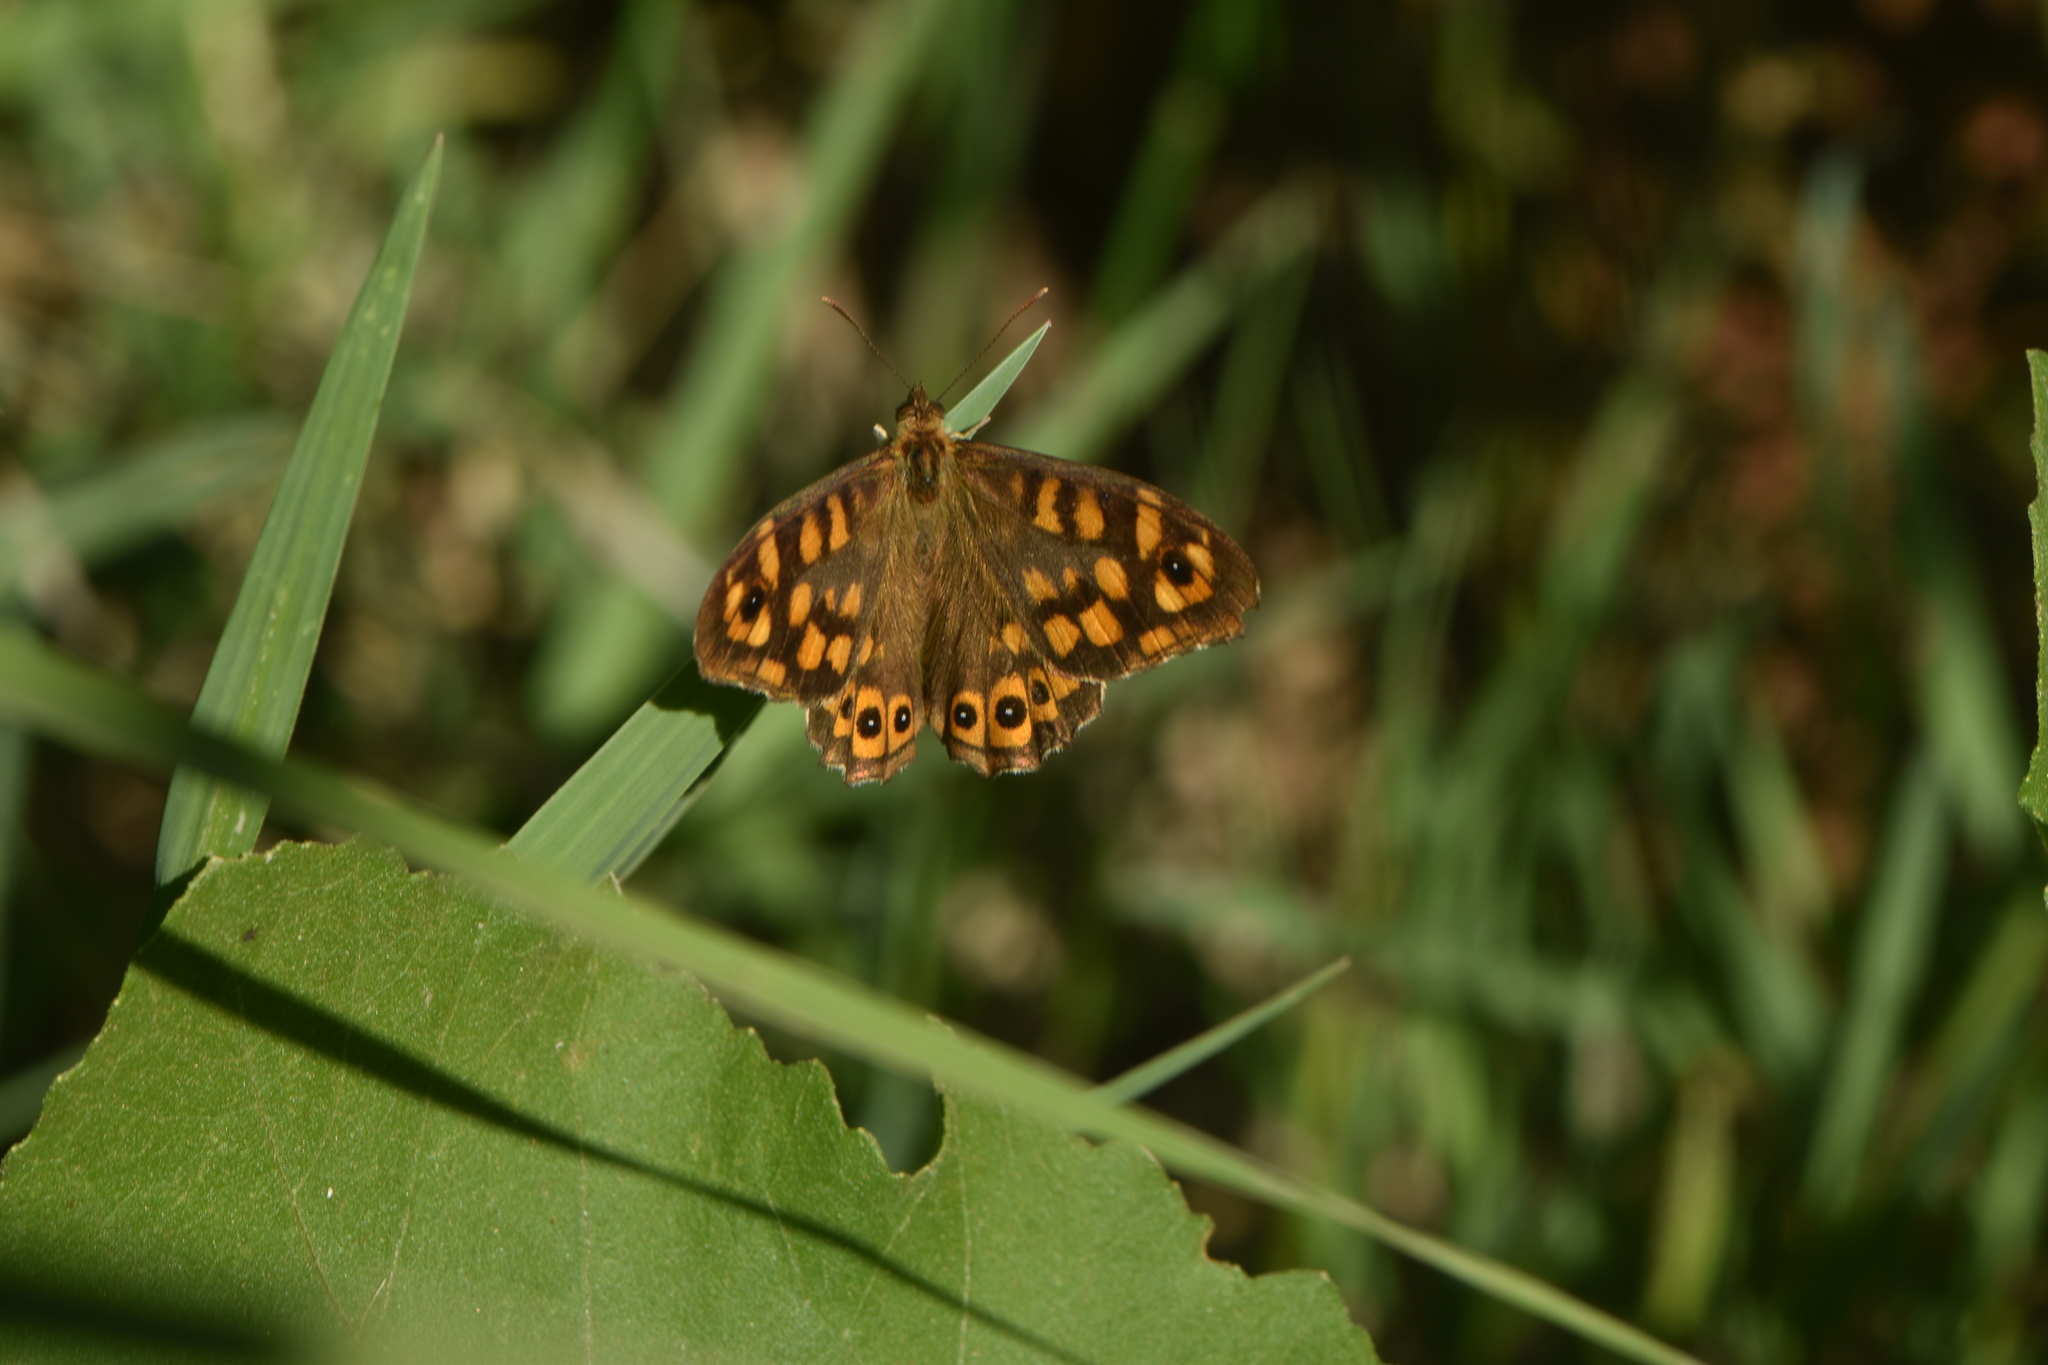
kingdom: Animalia
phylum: Arthropoda
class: Insecta
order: Lepidoptera
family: Nymphalidae
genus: Pararge
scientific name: Pararge aegeria
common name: Speckled wood
